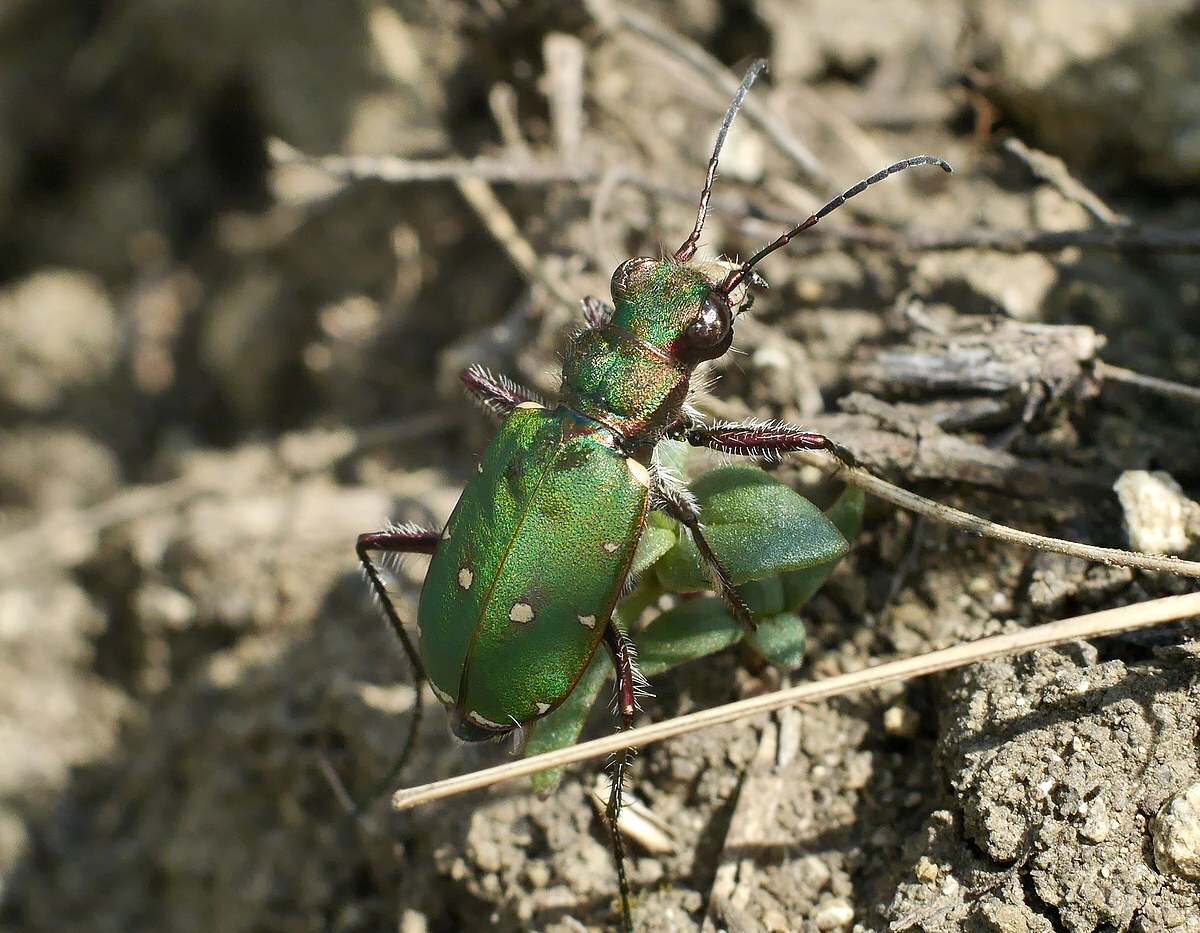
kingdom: Animalia
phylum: Arthropoda
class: Insecta
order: Coleoptera
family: Carabidae
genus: Cicindela
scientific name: Cicindela campestris
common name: Common tiger beetle
